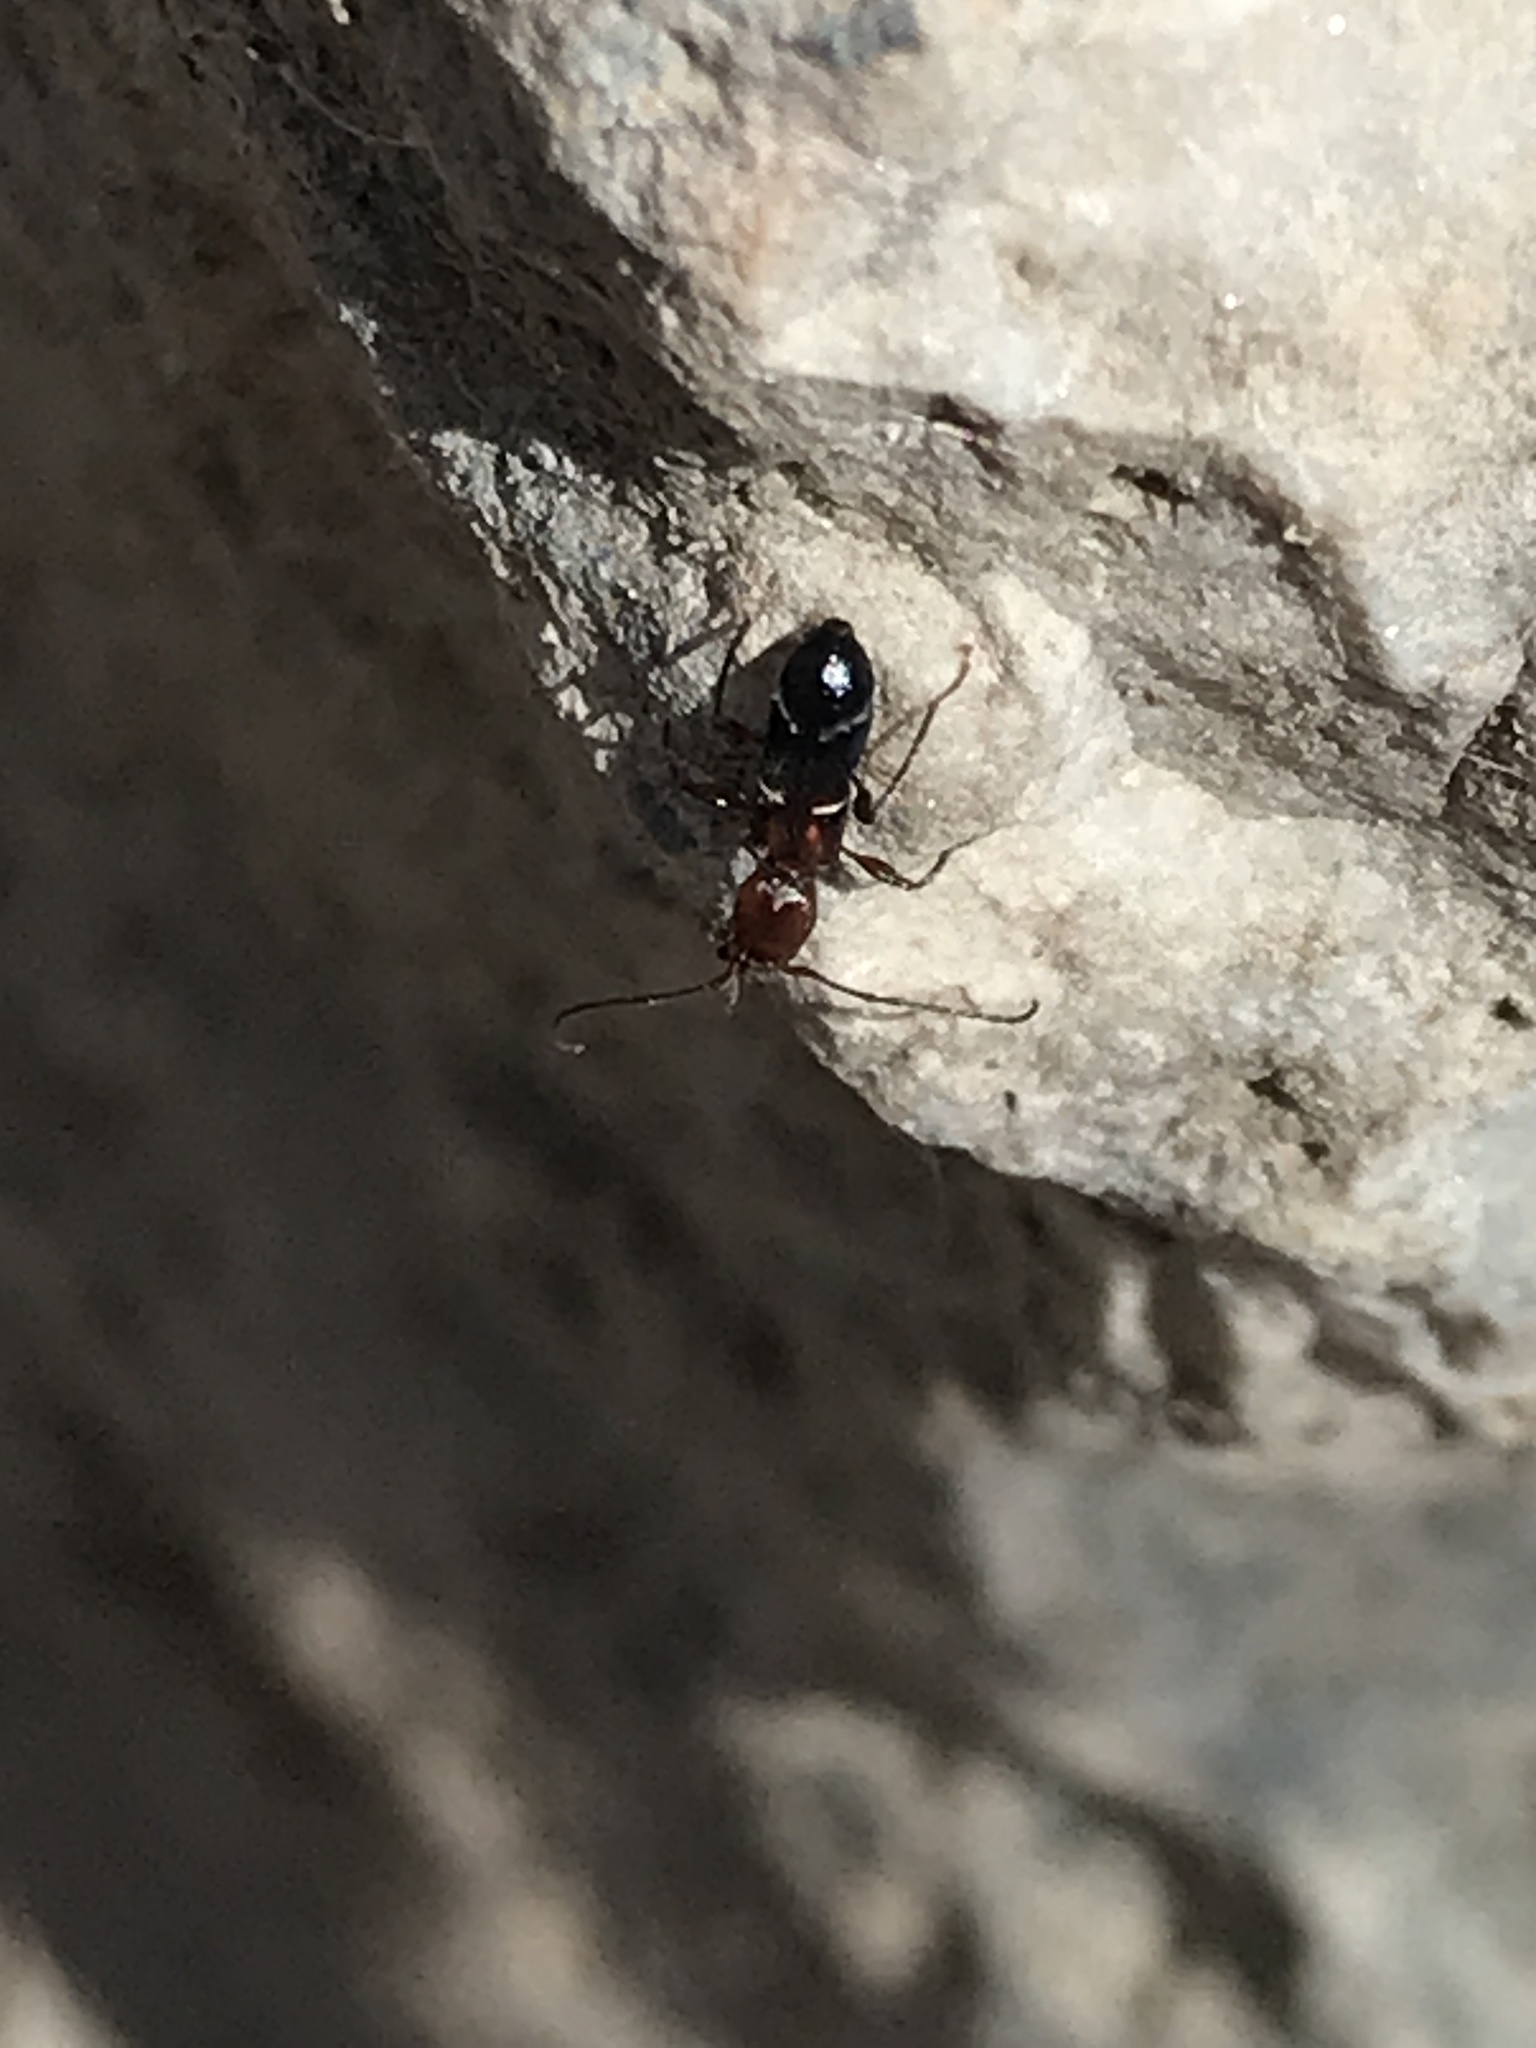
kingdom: Animalia
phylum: Arthropoda
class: Insecta
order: Coleoptera
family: Cerambycidae
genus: Euderces
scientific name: Euderces pini
